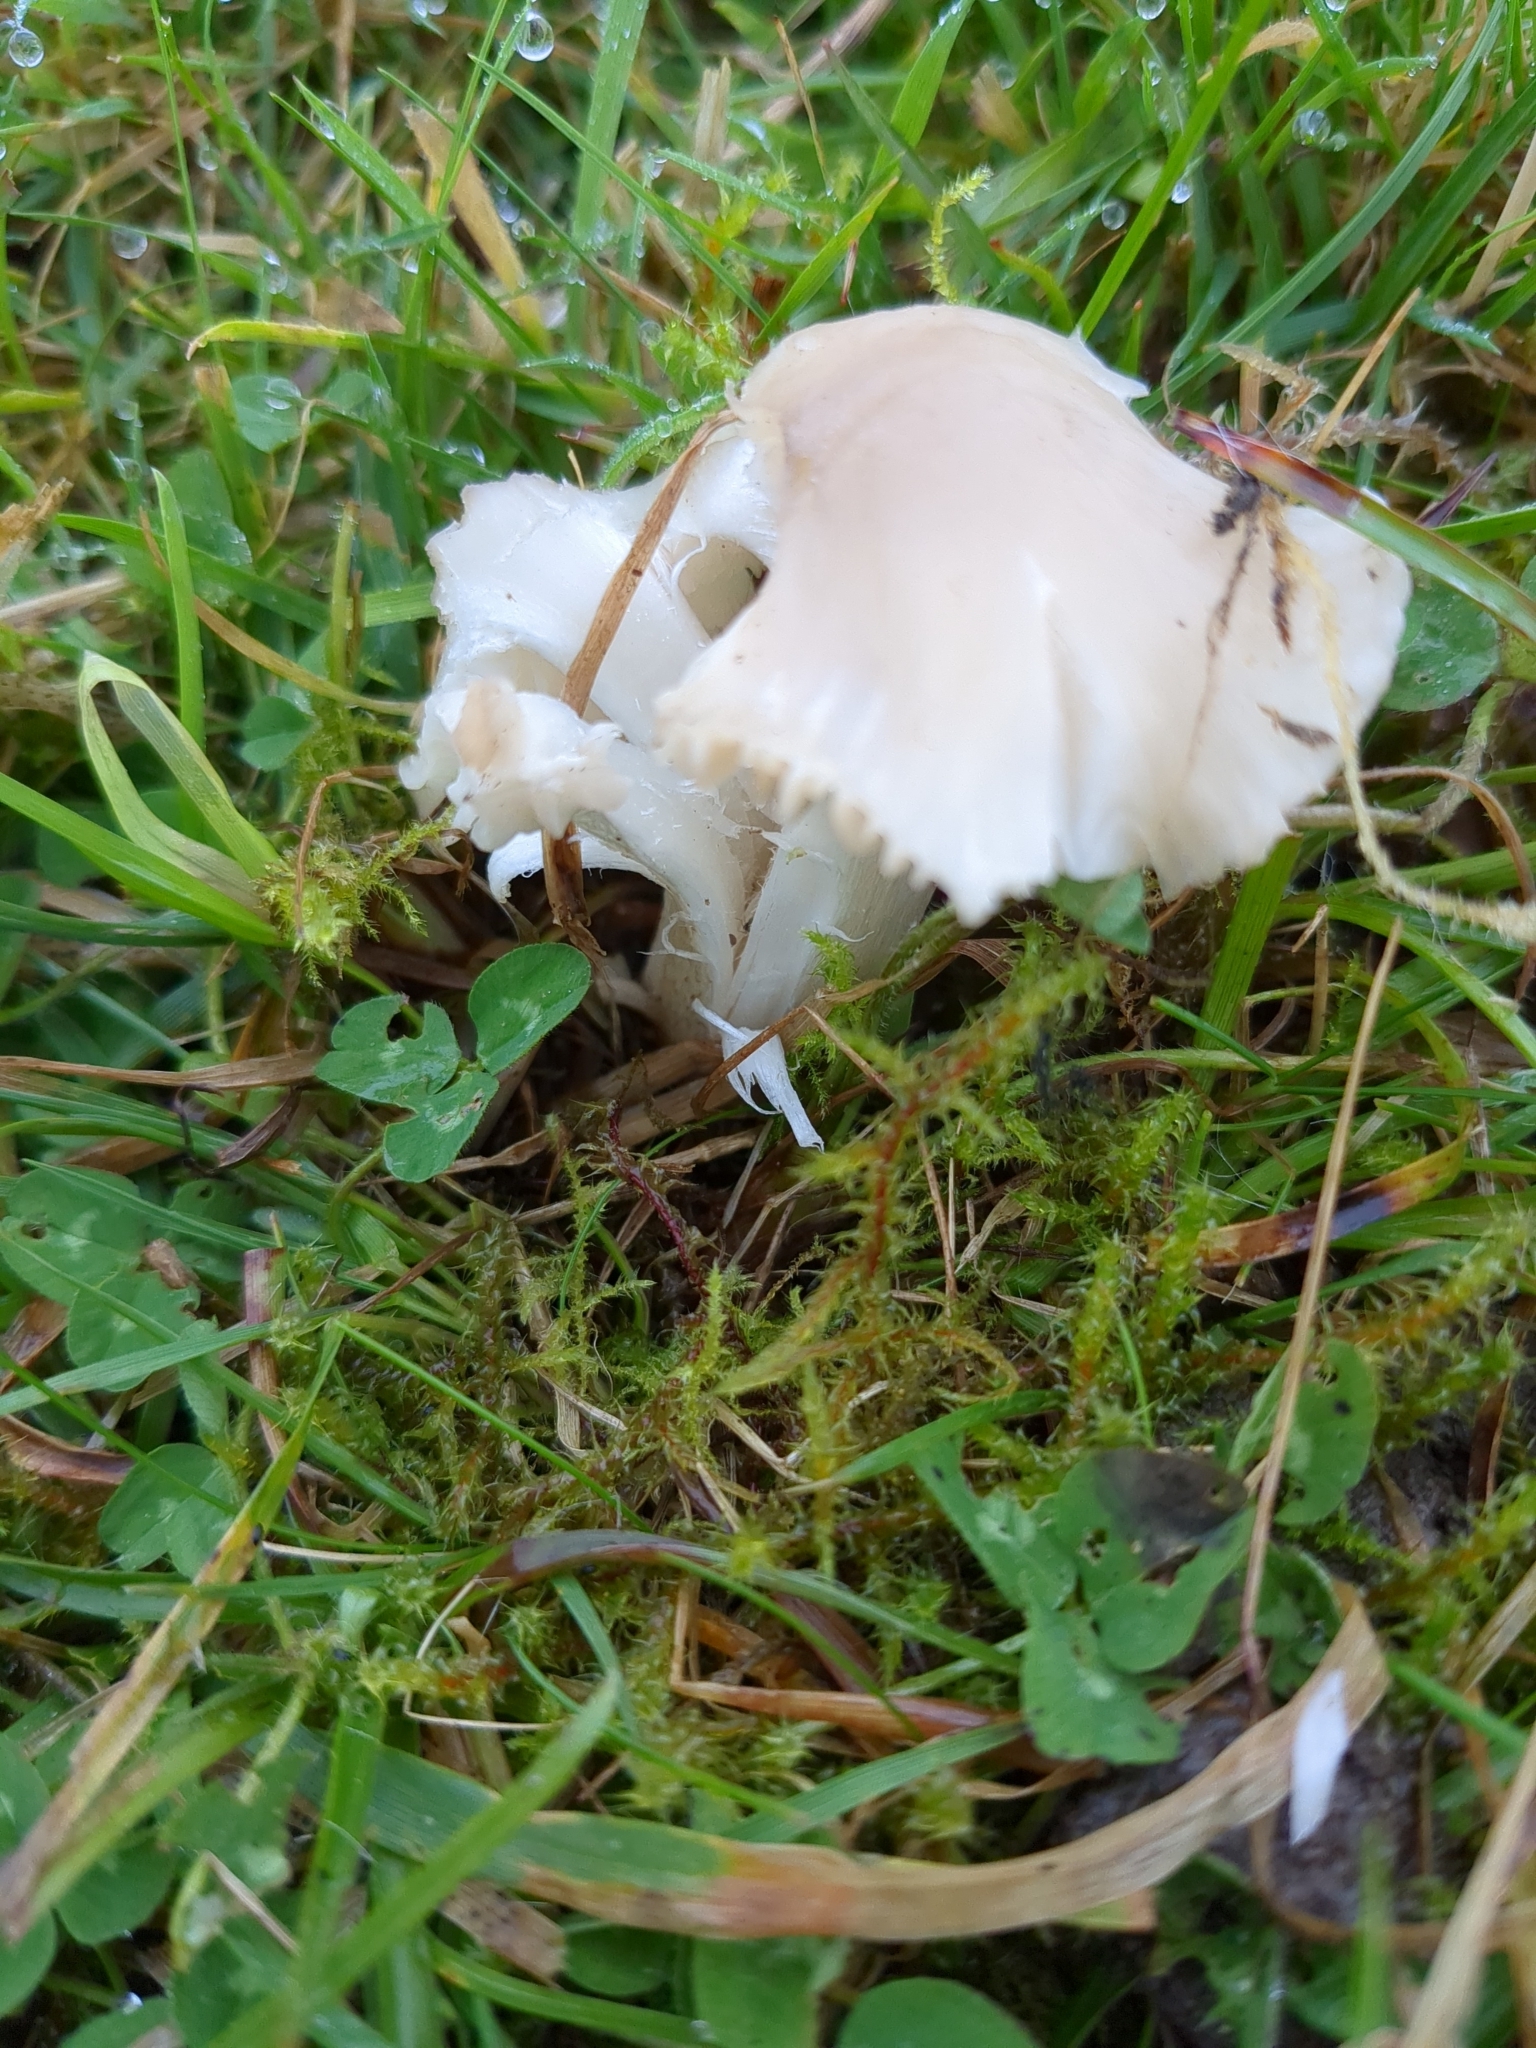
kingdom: Fungi
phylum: Basidiomycota
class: Agaricomycetes
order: Agaricales
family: Hygrophoraceae
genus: Cuphophyllus
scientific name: Cuphophyllus fornicatus
